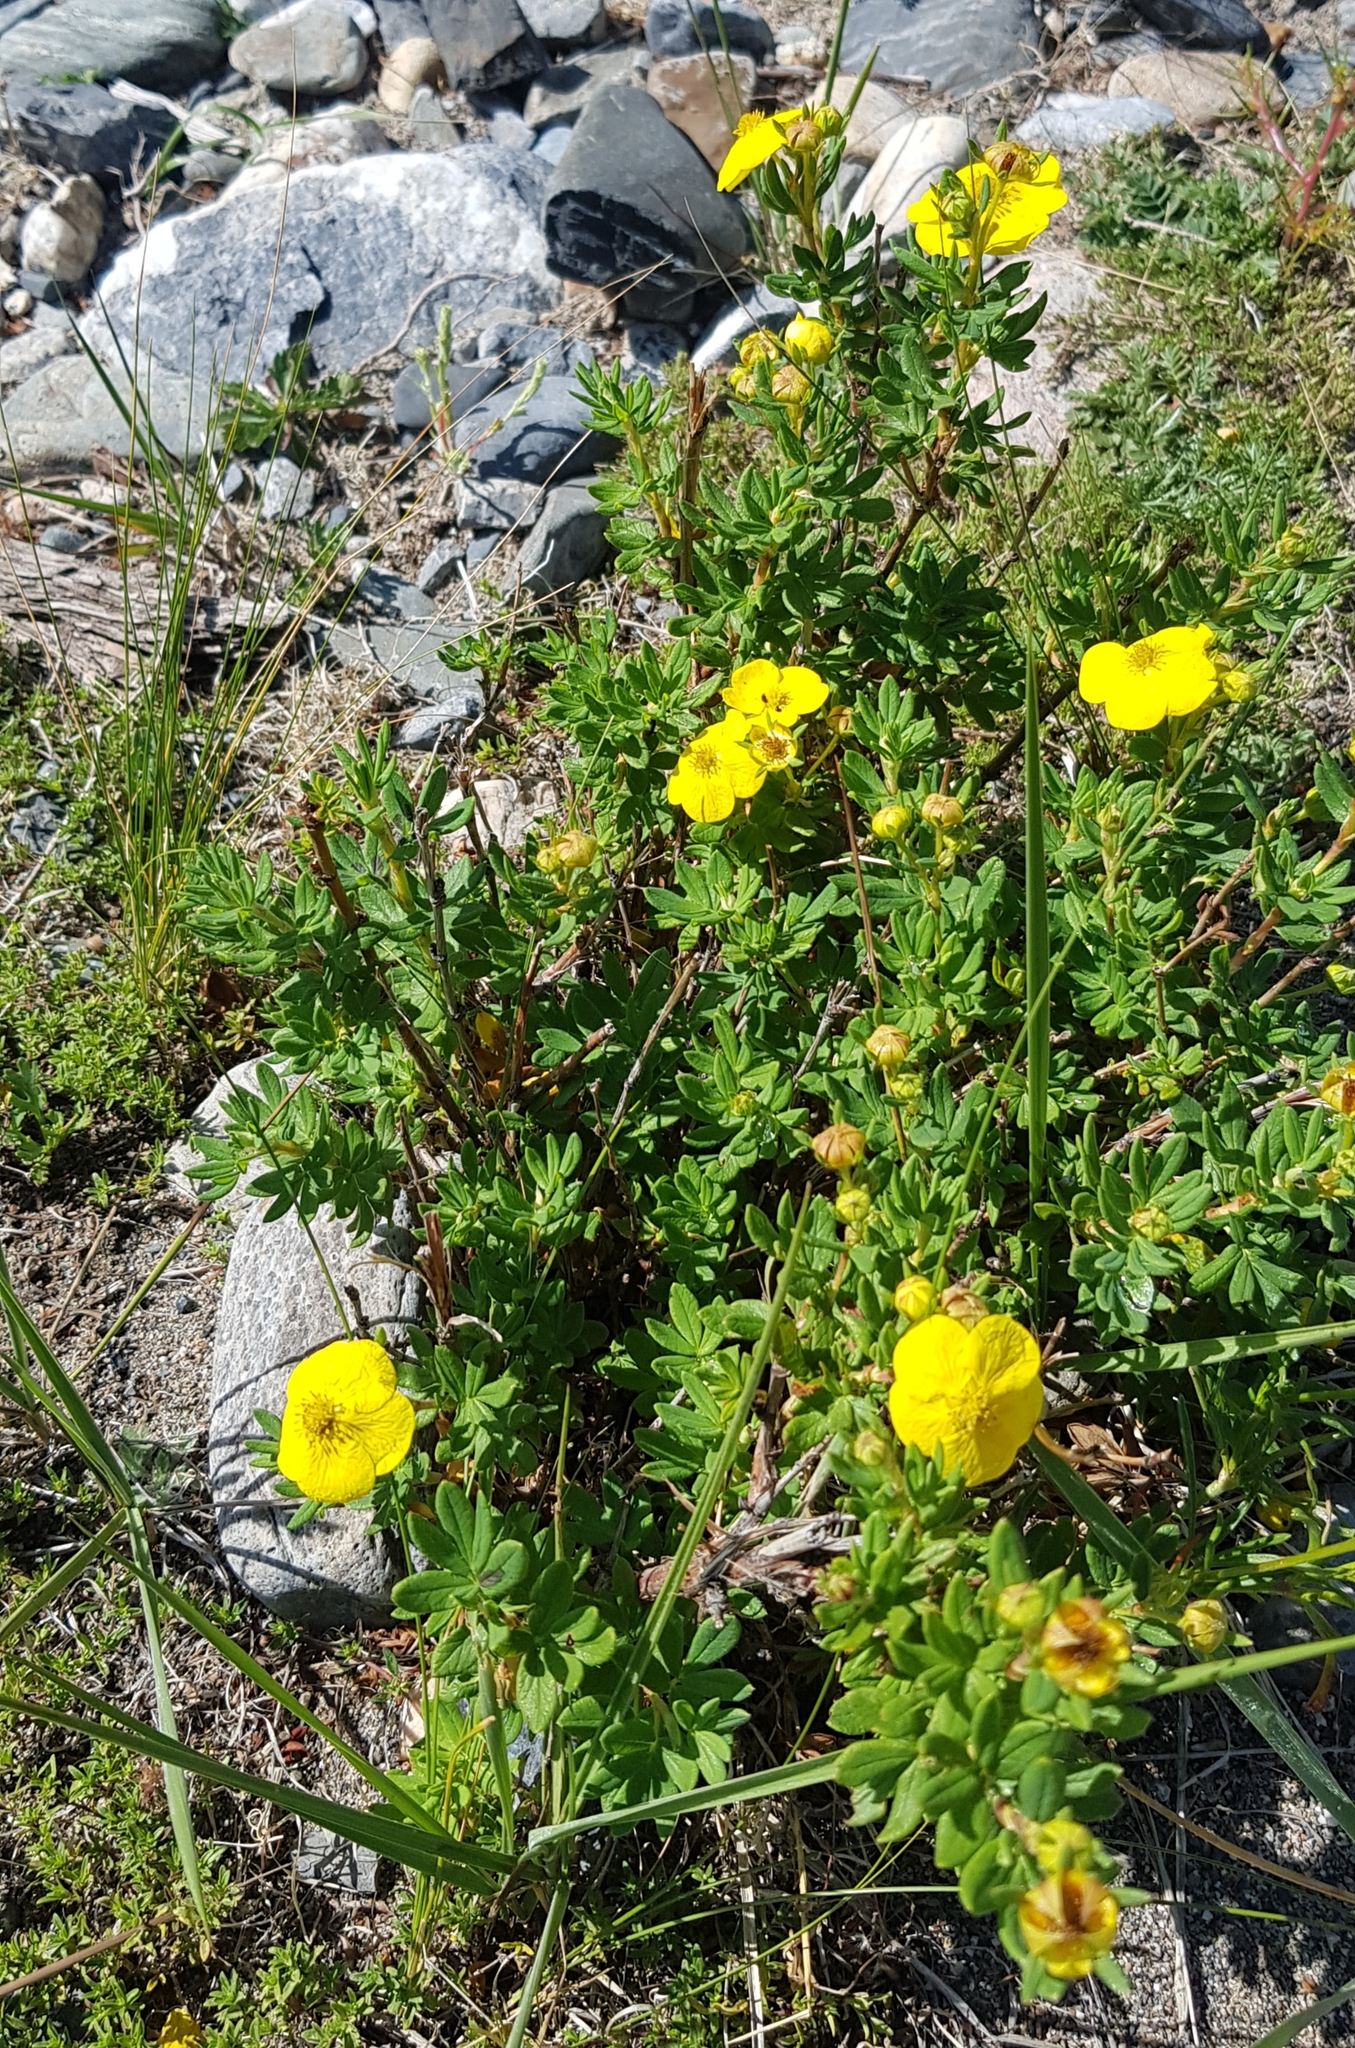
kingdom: Plantae
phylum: Tracheophyta
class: Magnoliopsida
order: Rosales
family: Rosaceae
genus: Dasiphora
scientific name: Dasiphora fruticosa
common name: Shrubby cinquefoil
